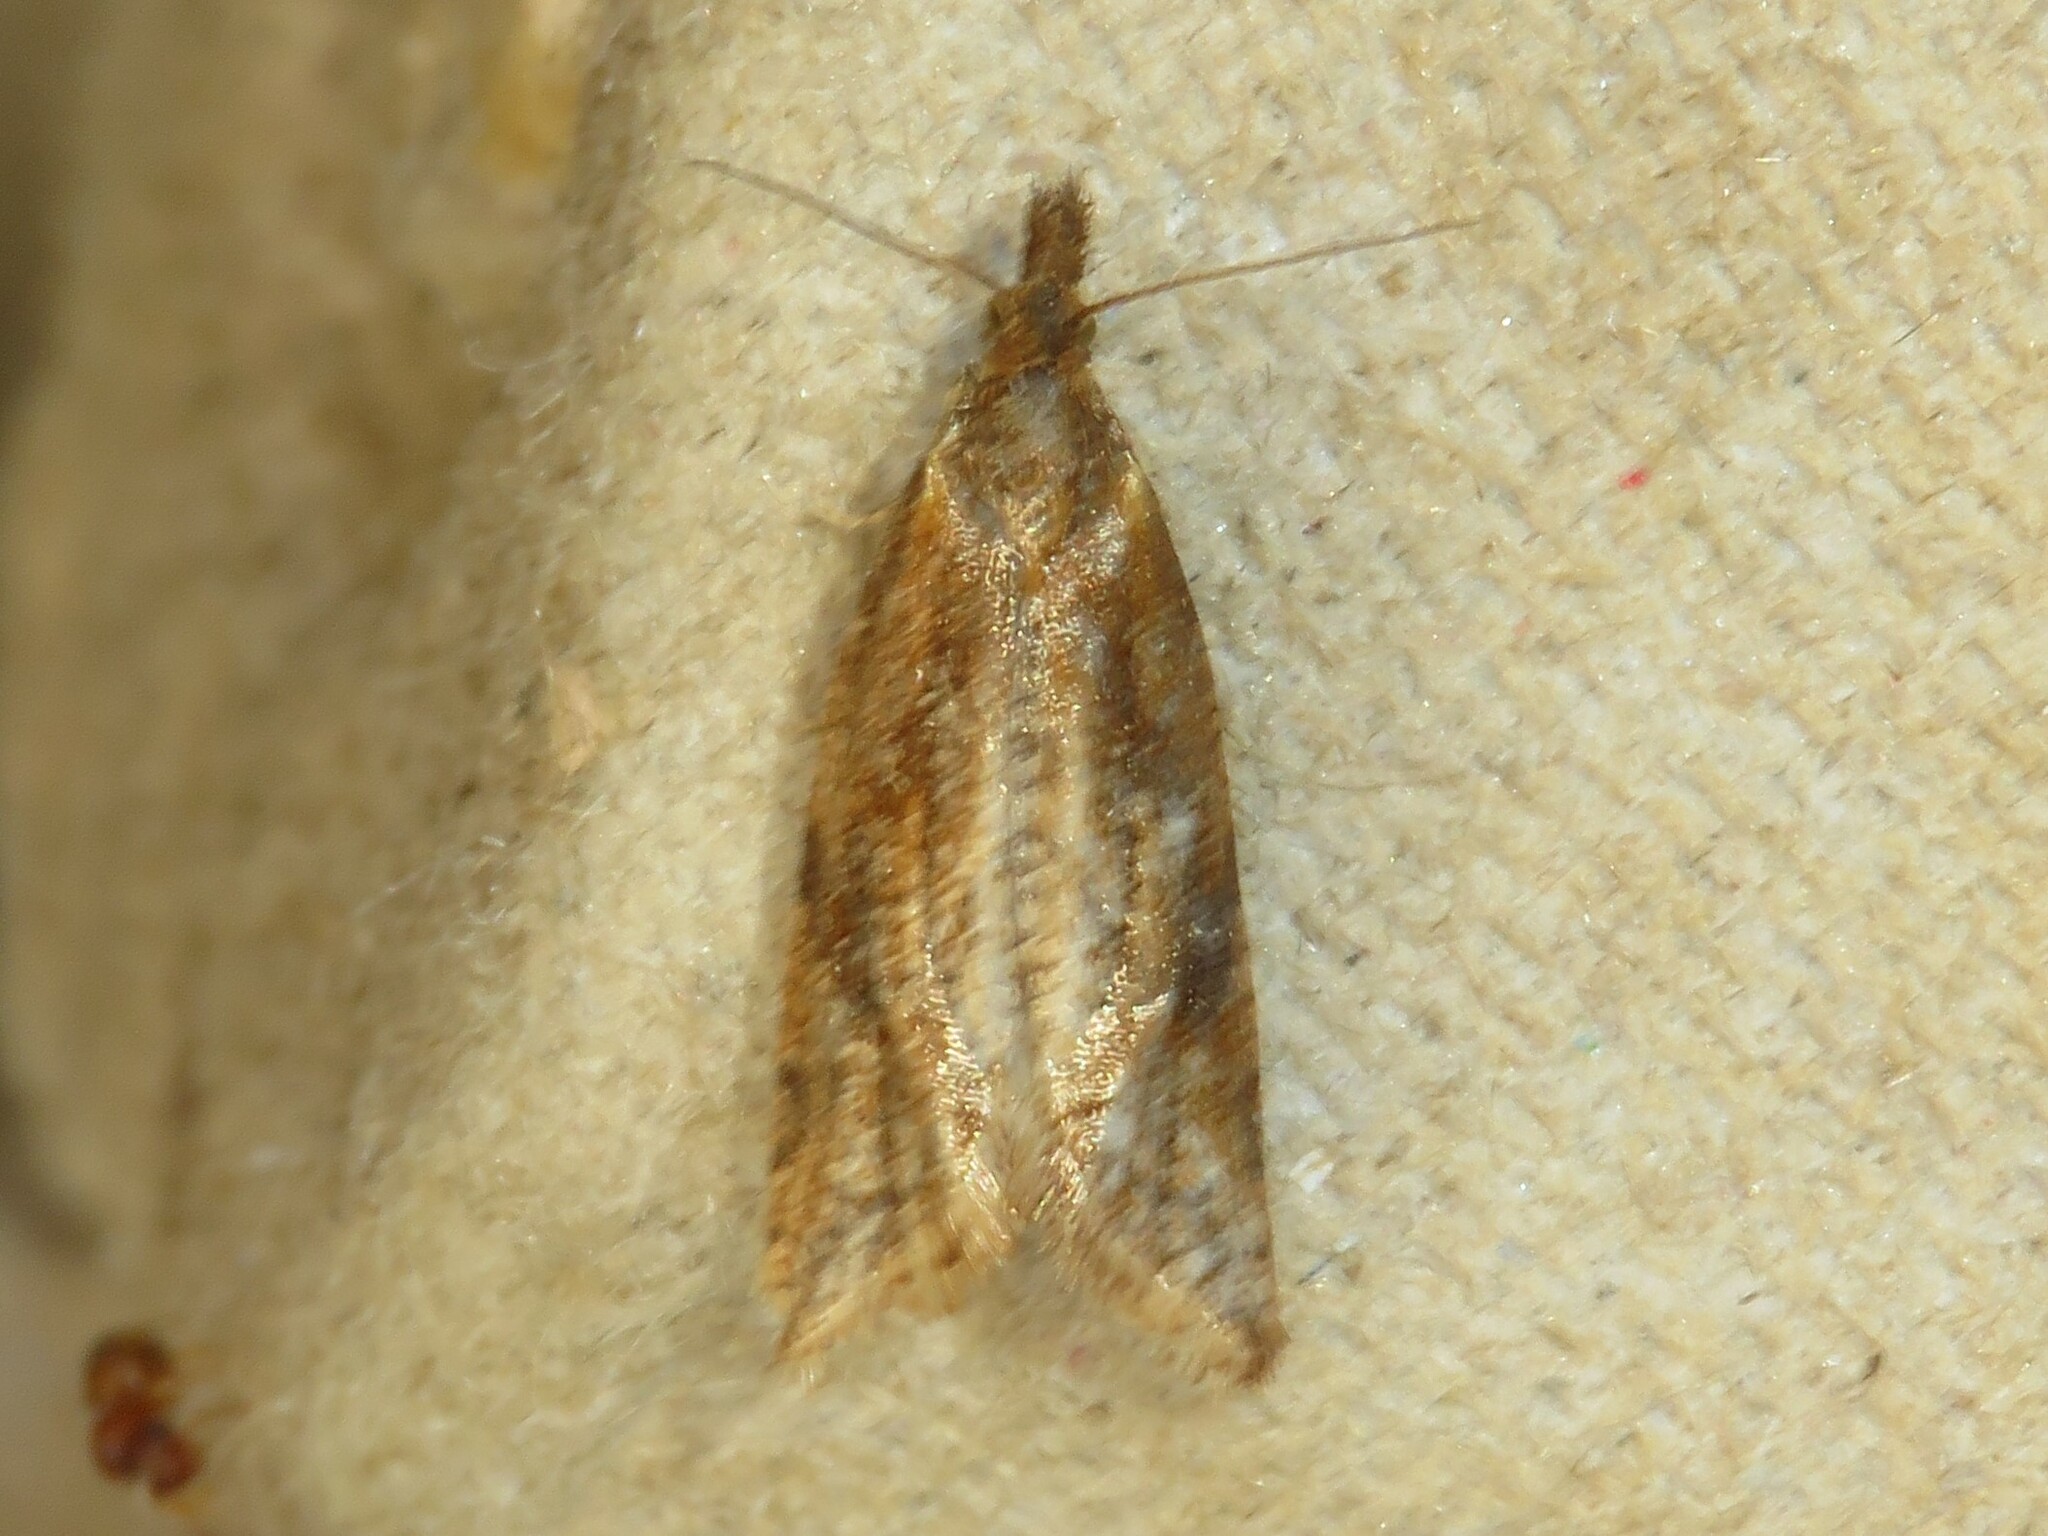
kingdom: Animalia
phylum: Arthropoda
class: Insecta
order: Lepidoptera
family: Tortricidae
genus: Aethes
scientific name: Aethes biscana
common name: Reddish aethes
